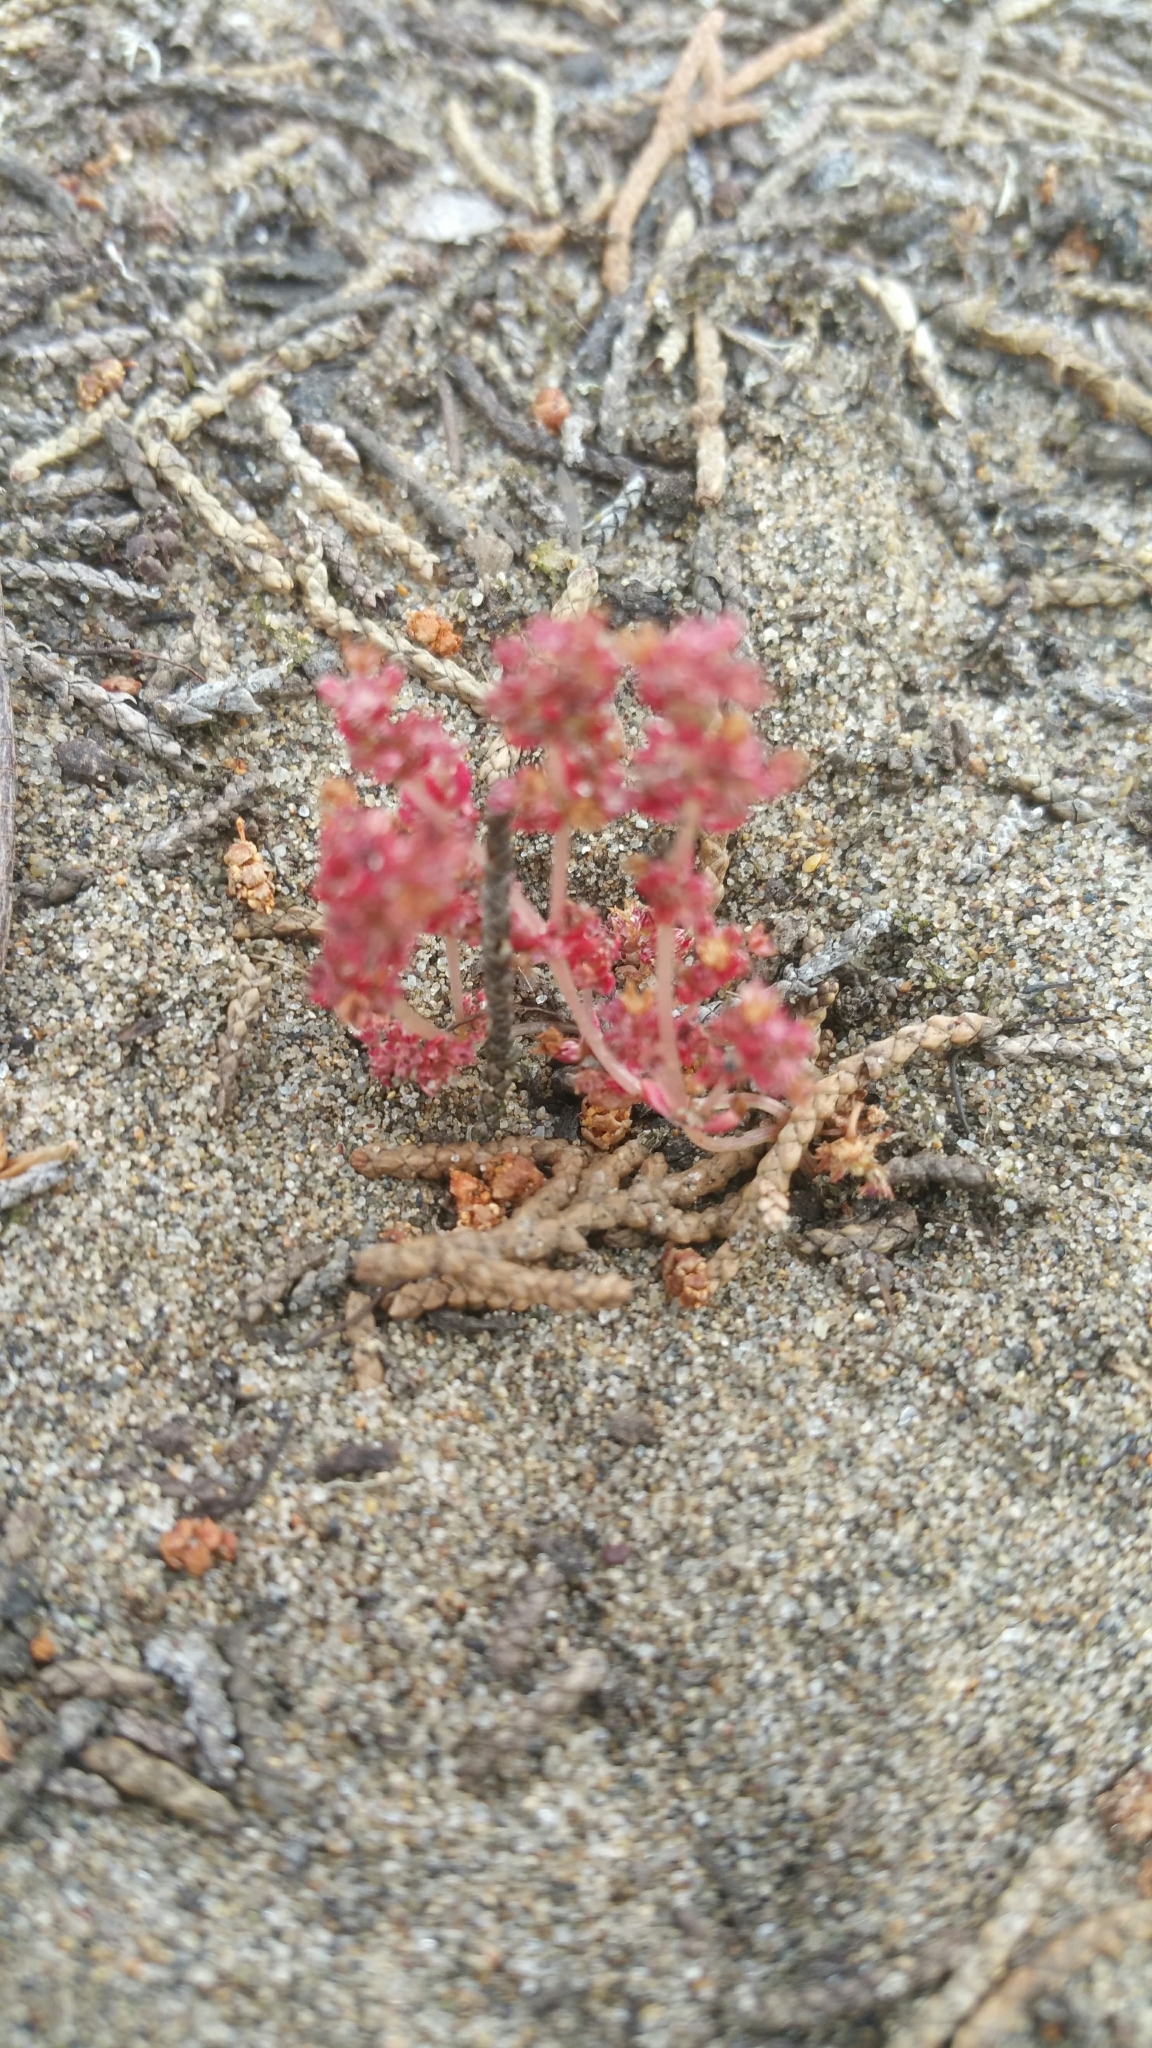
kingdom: Plantae
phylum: Tracheophyta
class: Magnoliopsida
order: Saxifragales
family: Crassulaceae
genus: Crassula
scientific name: Crassula connata
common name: Erect pygmyweed
